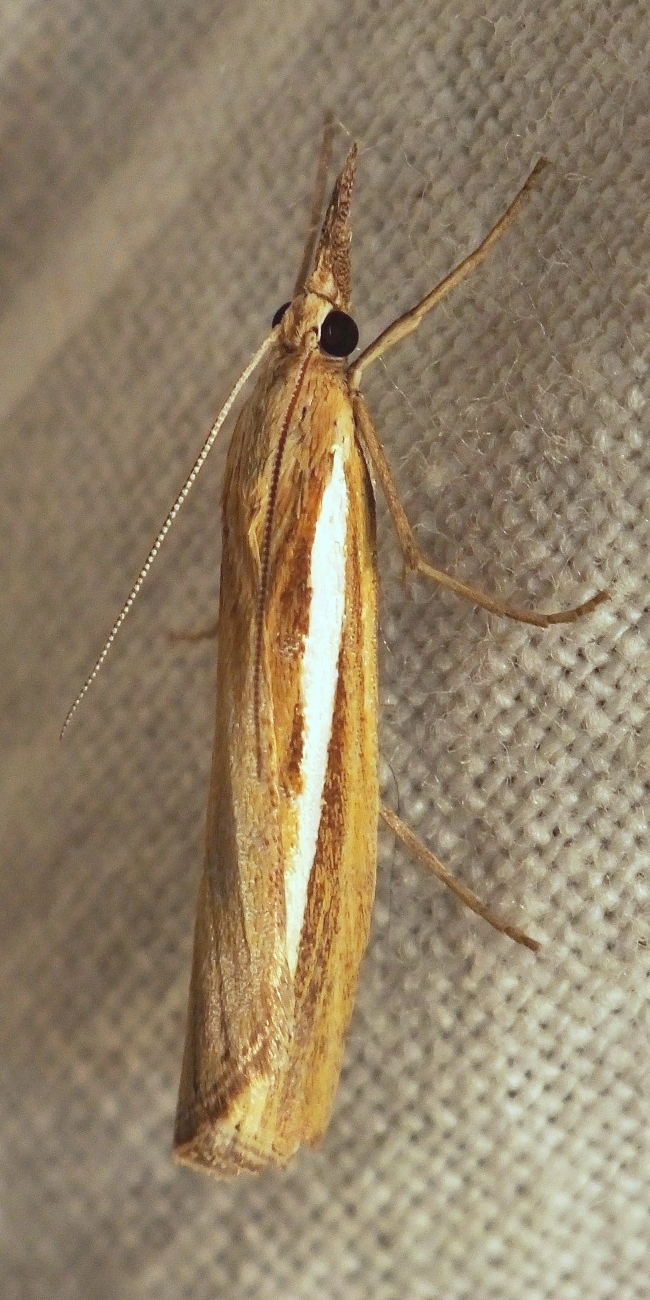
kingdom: Animalia
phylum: Arthropoda
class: Insecta
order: Lepidoptera
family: Crambidae
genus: Agriphila
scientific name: Agriphila tristellus
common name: Common grass-veneer
